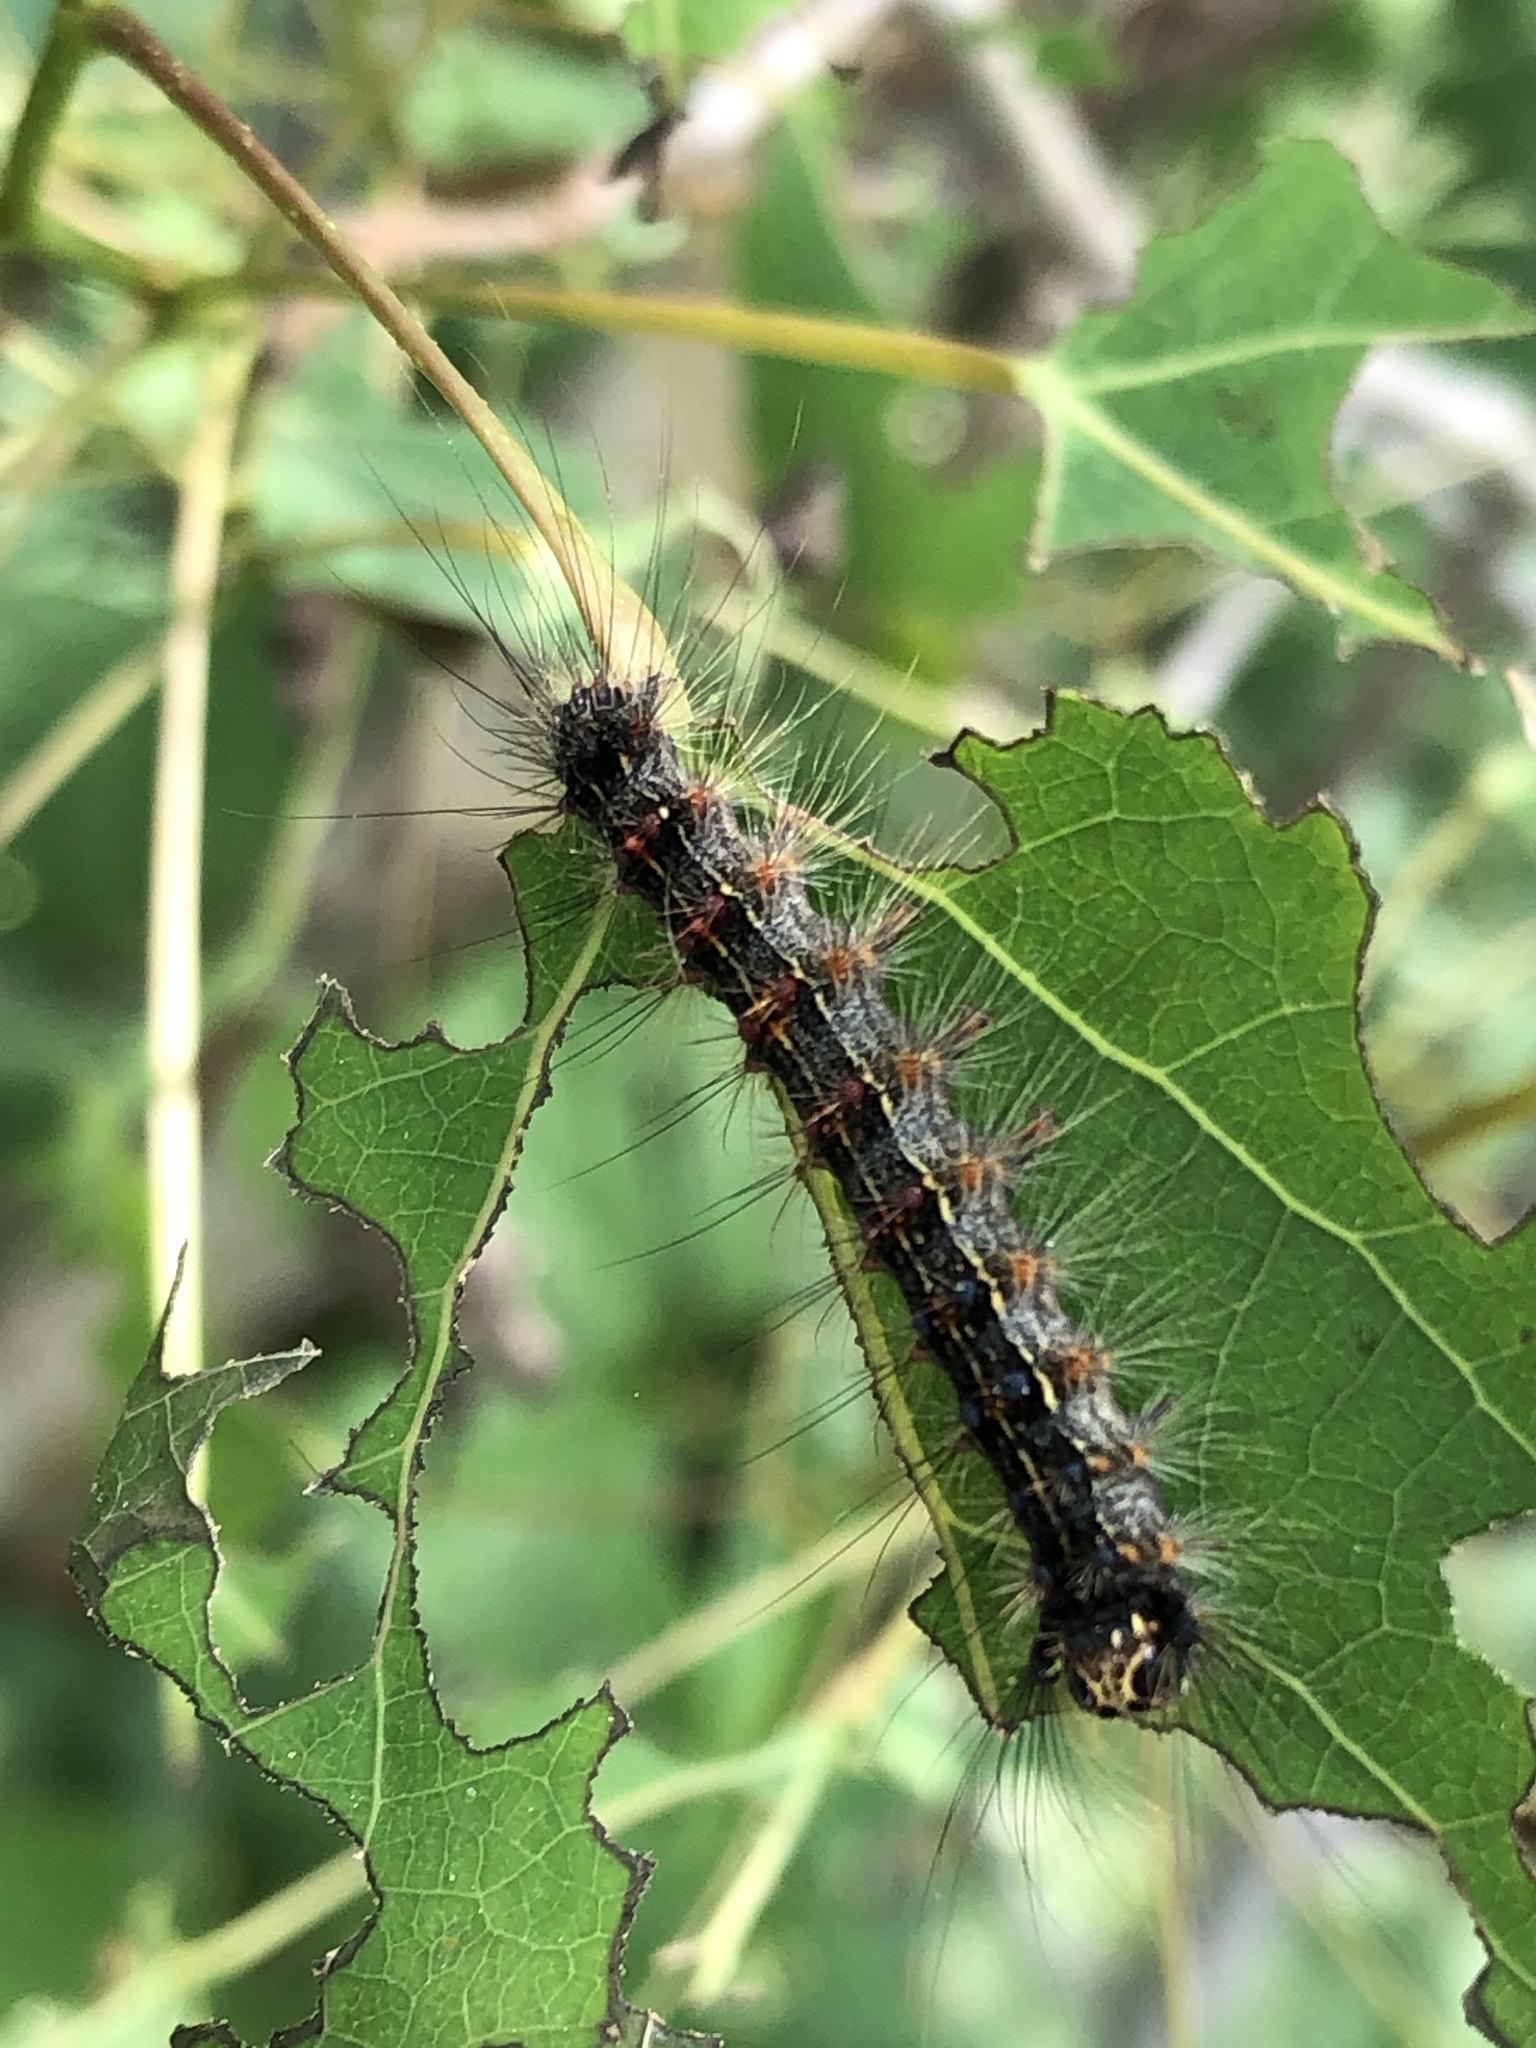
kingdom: Animalia
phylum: Arthropoda
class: Insecta
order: Lepidoptera
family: Erebidae
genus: Lymantria
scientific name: Lymantria dispar
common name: Gypsy moth
